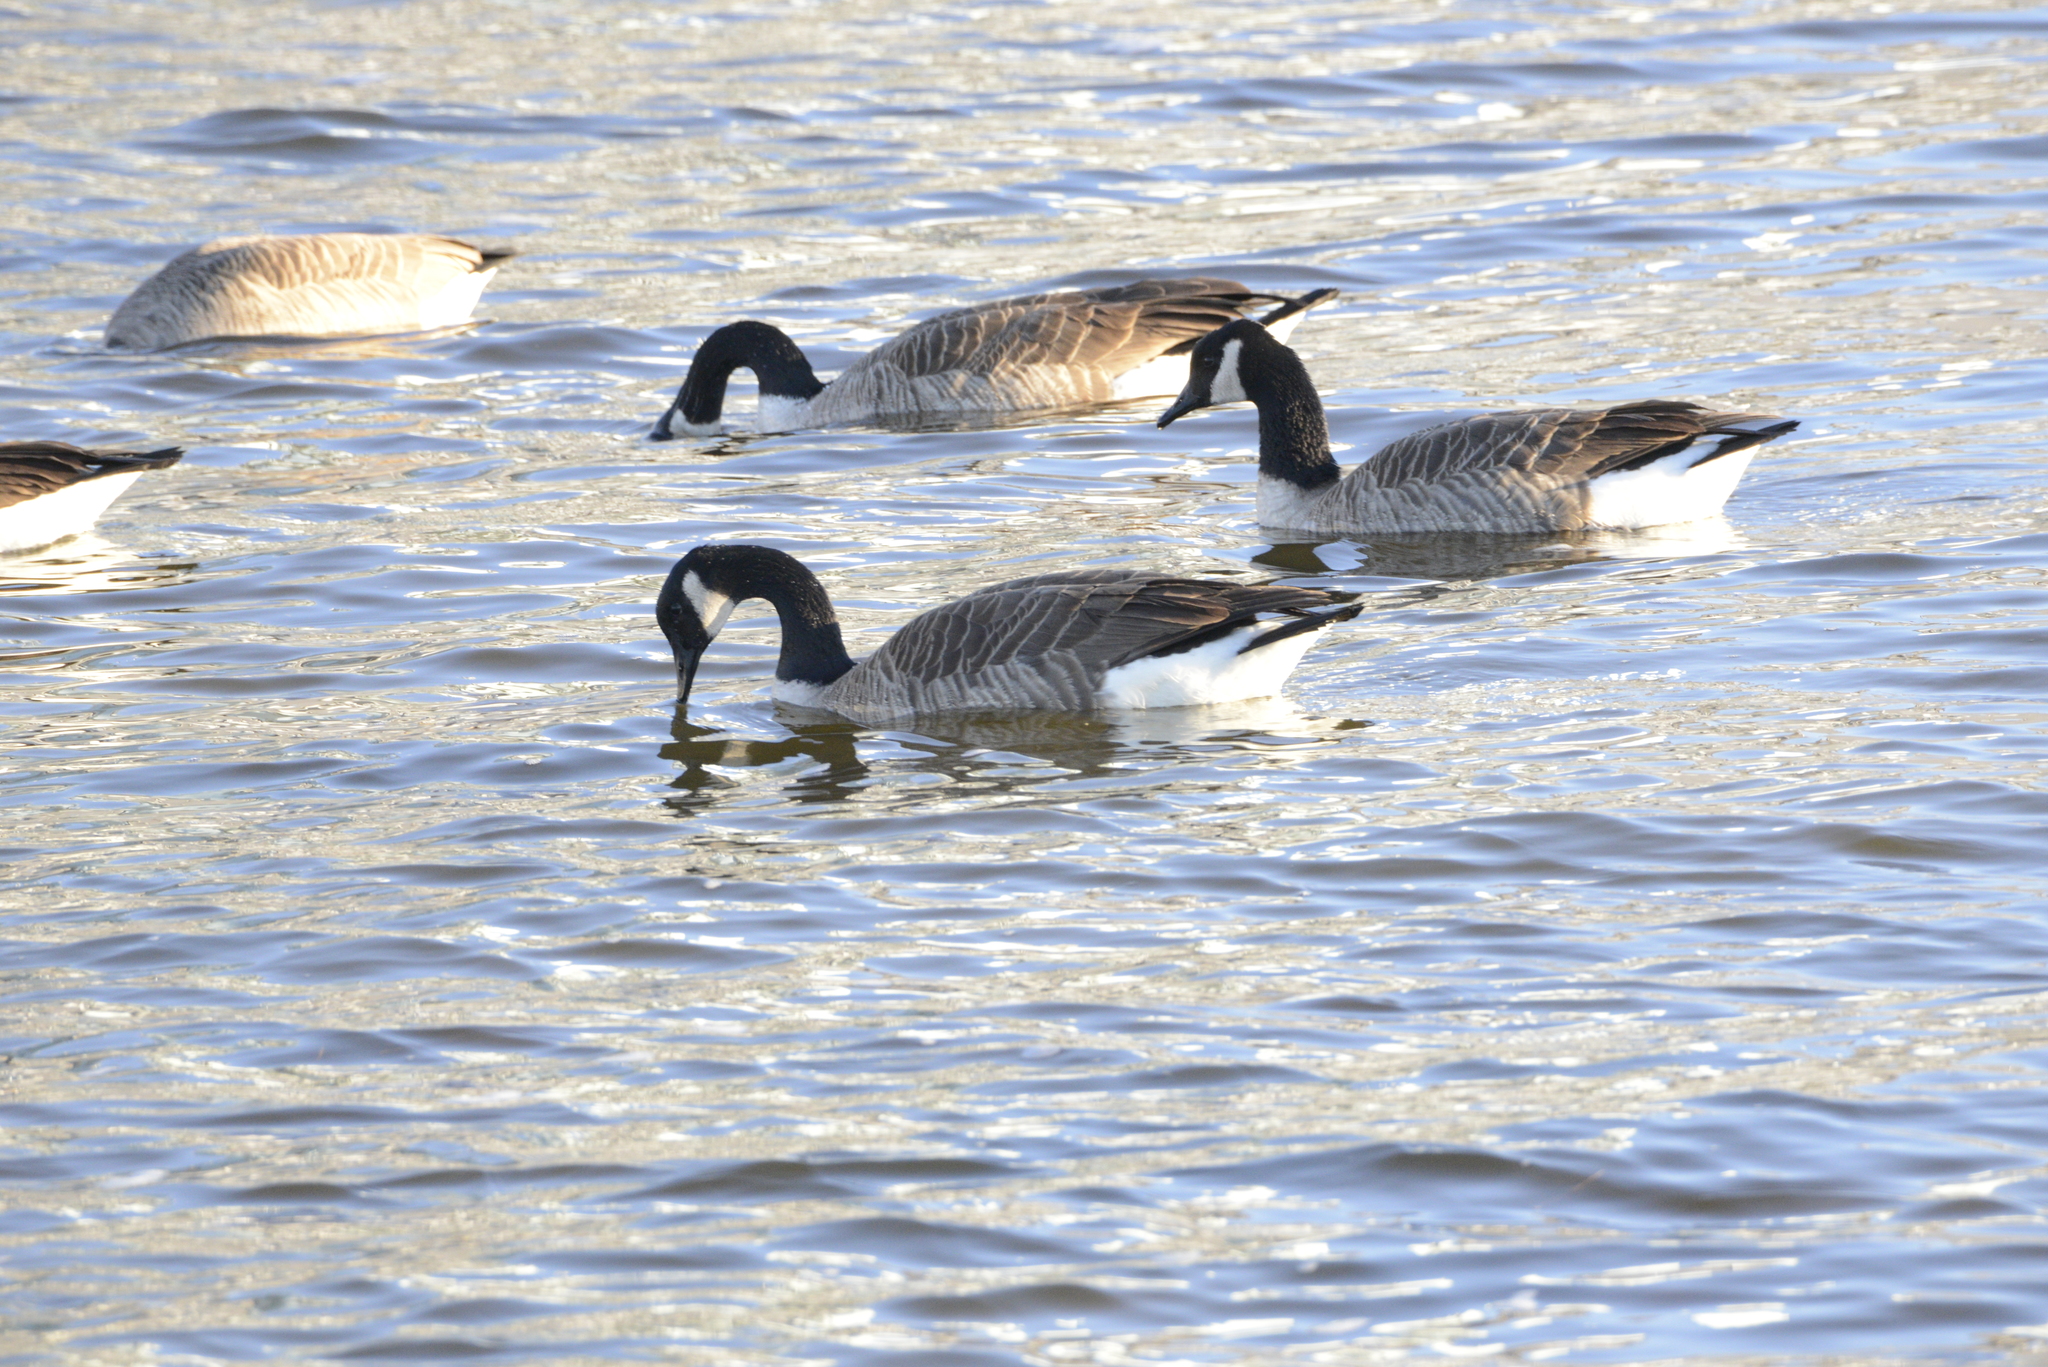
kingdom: Animalia
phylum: Chordata
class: Aves
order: Anseriformes
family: Anatidae
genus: Branta
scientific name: Branta canadensis
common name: Canada goose
